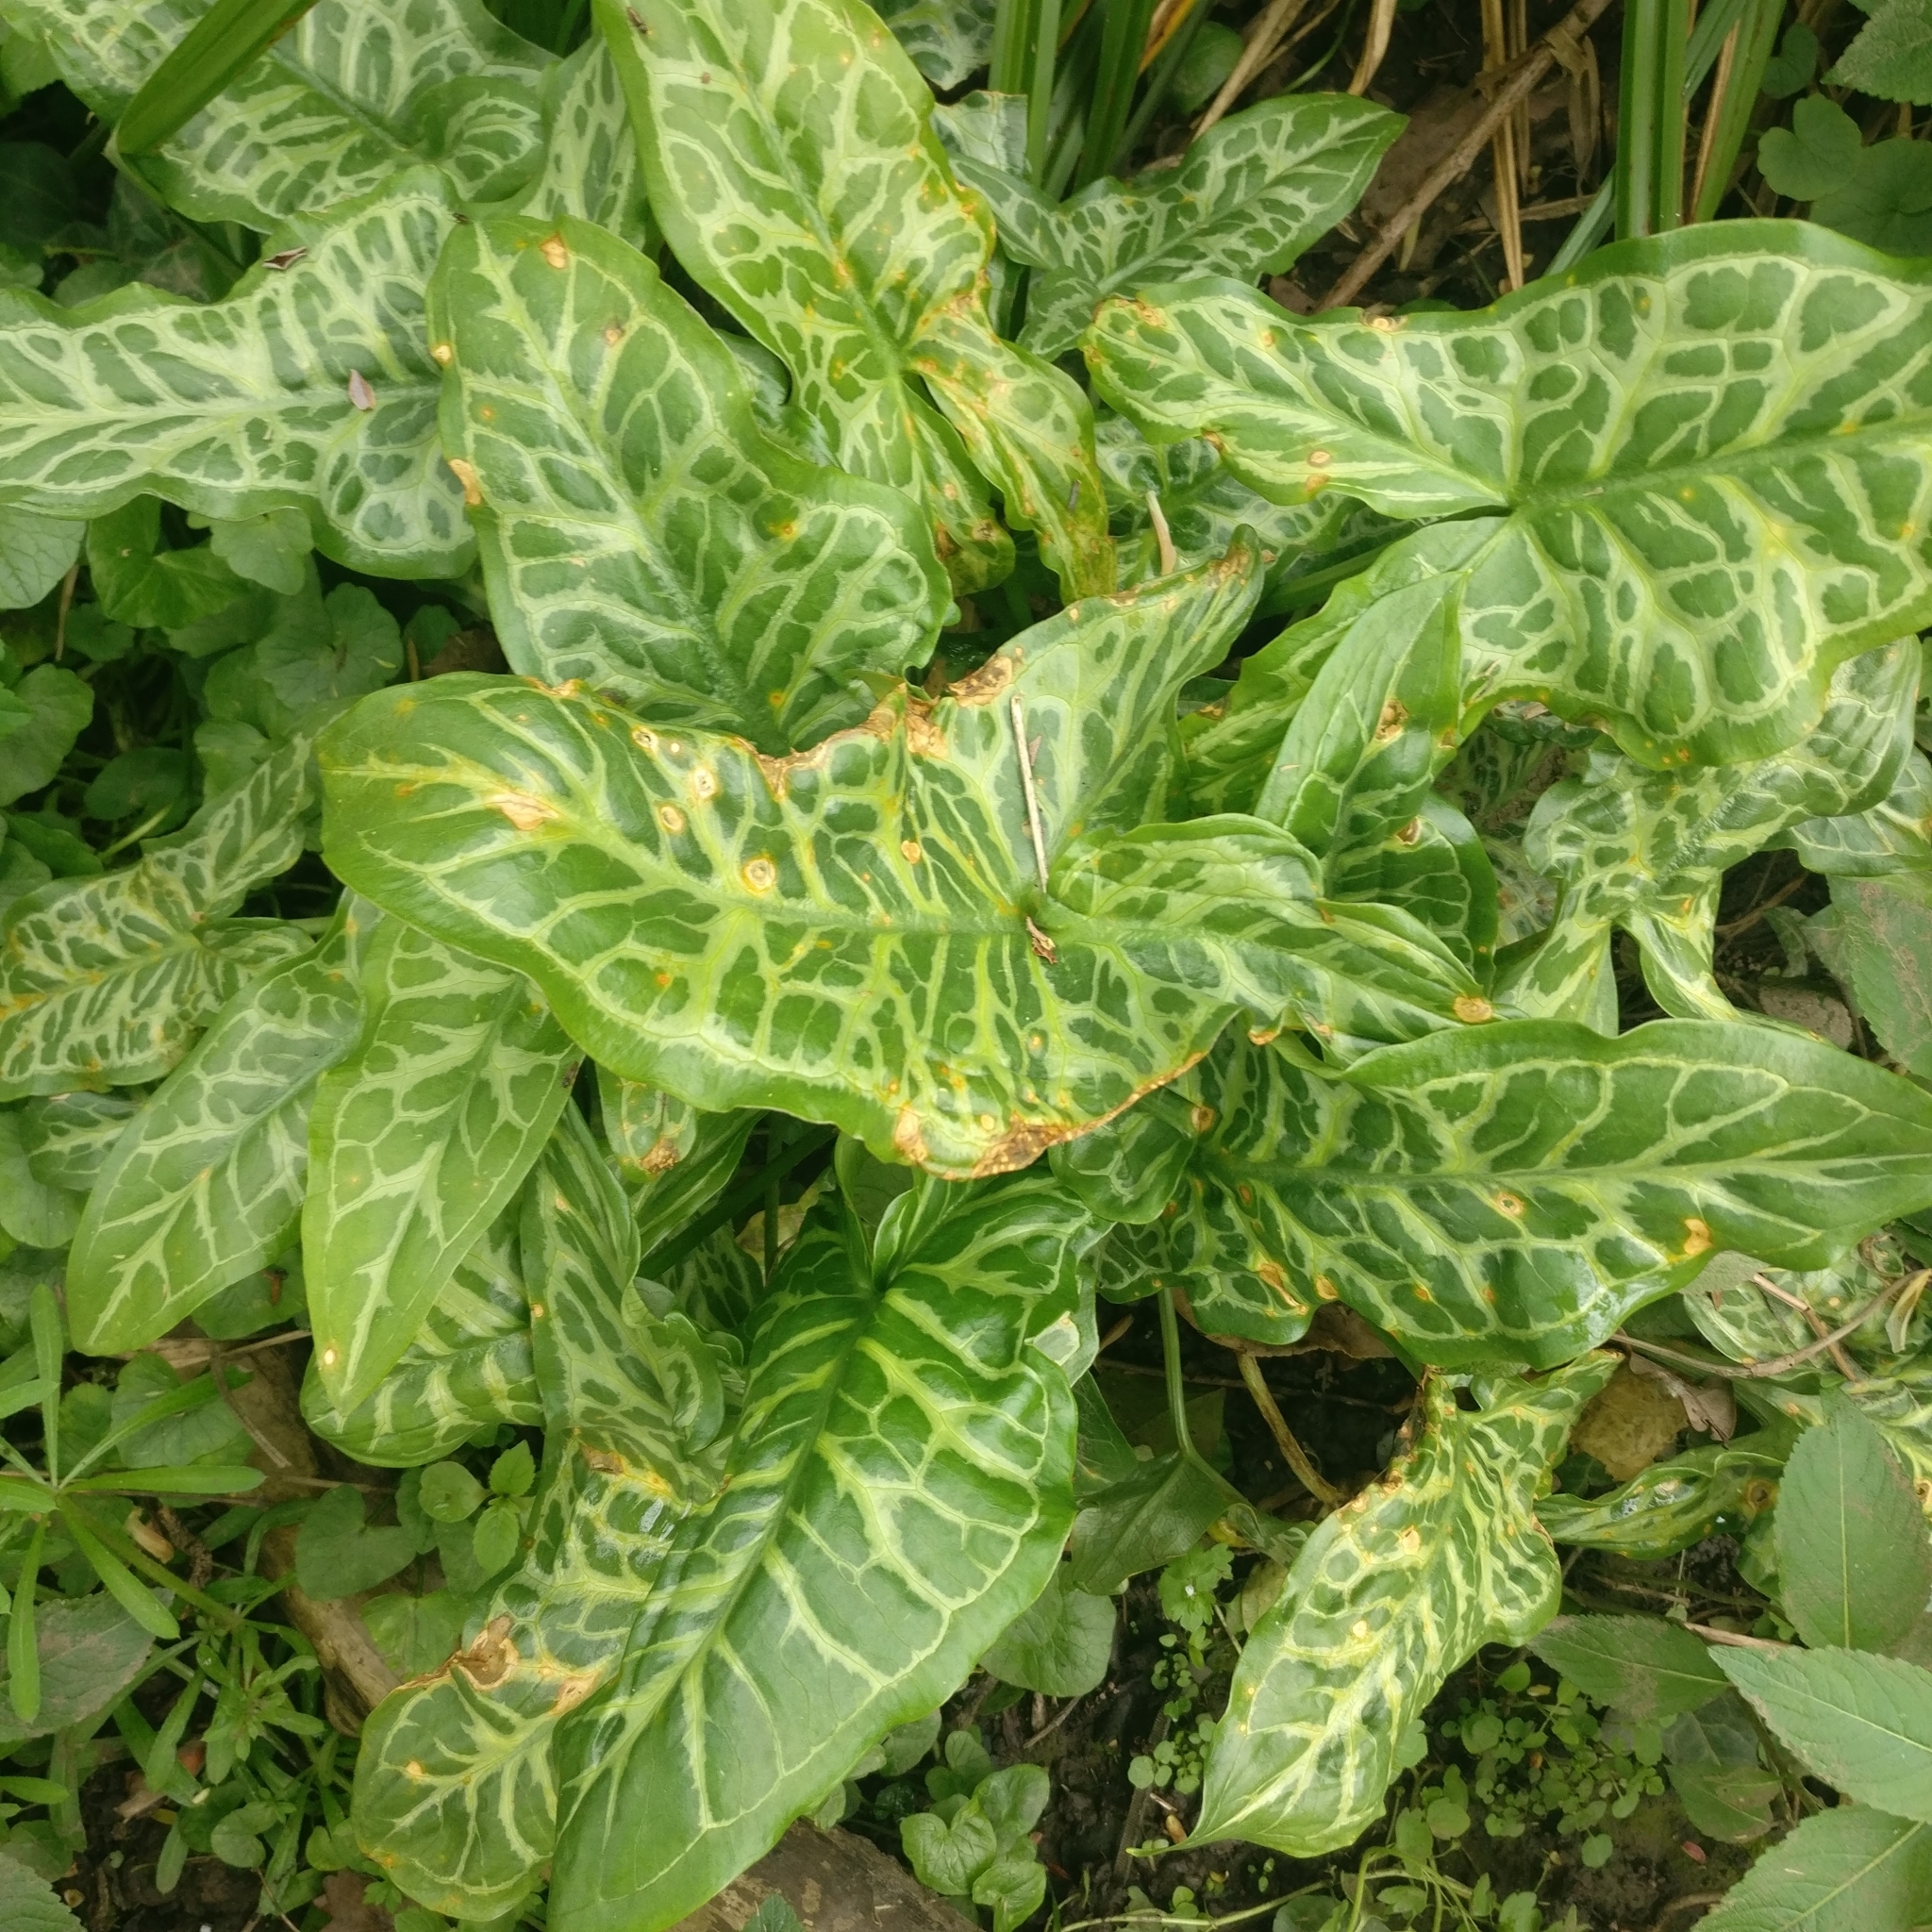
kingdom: Plantae
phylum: Tracheophyta
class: Liliopsida
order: Alismatales
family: Araceae
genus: Arum
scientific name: Arum italicum
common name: Italian lords-and-ladies
